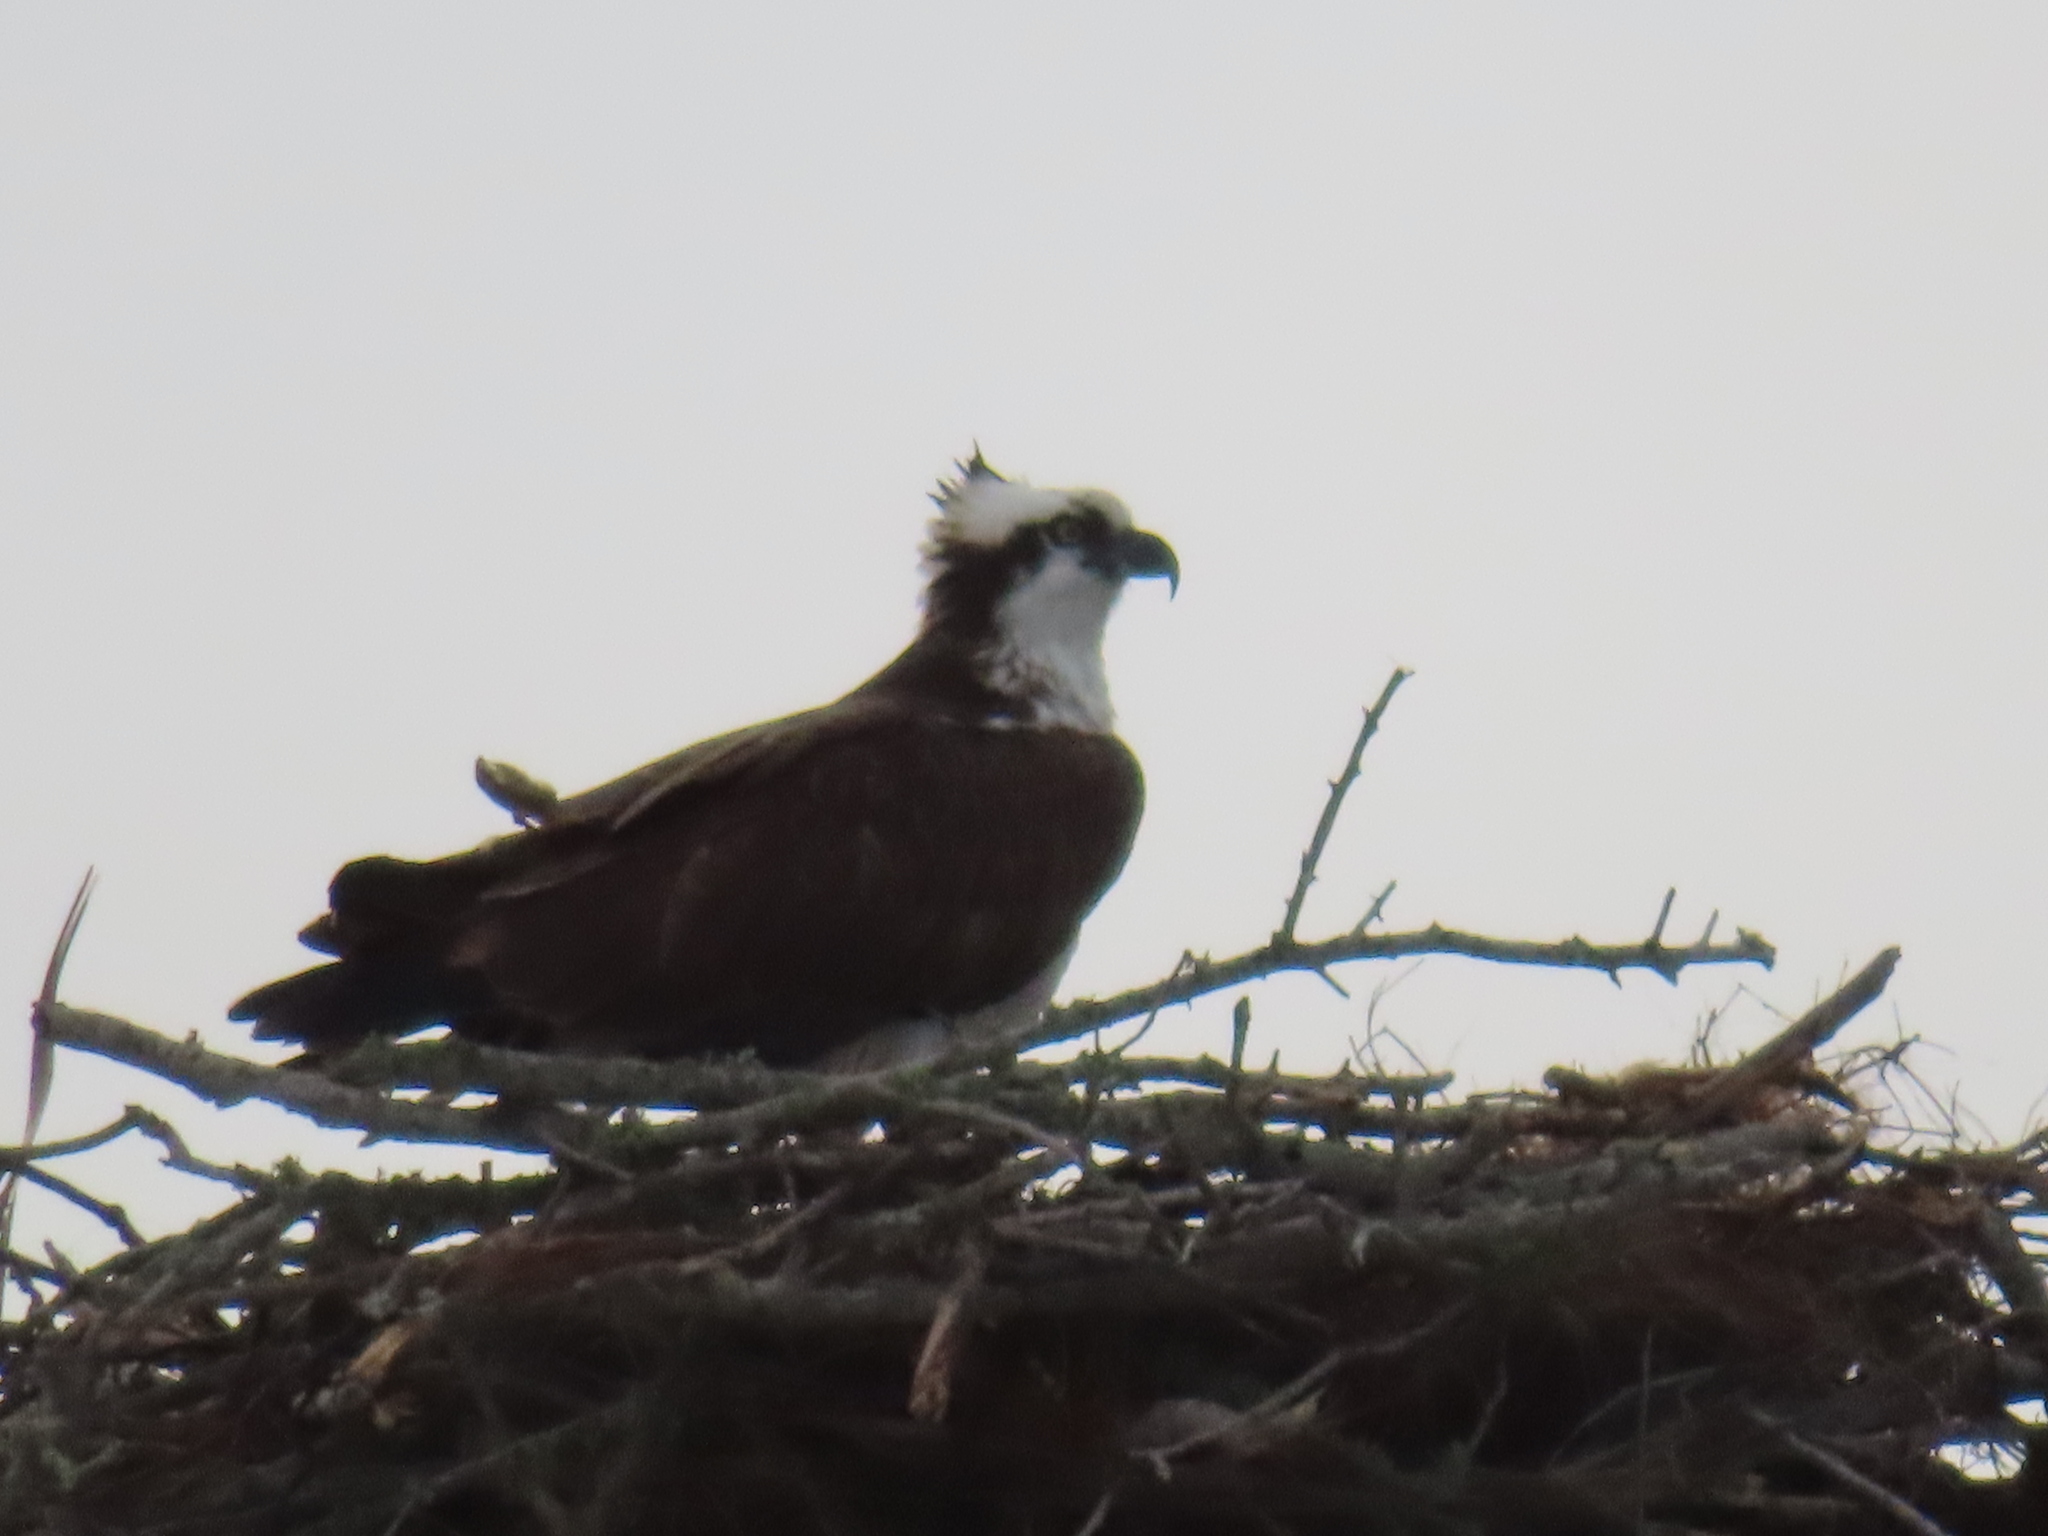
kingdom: Animalia
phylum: Chordata
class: Aves
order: Accipitriformes
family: Pandionidae
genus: Pandion
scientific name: Pandion haliaetus
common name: Osprey
